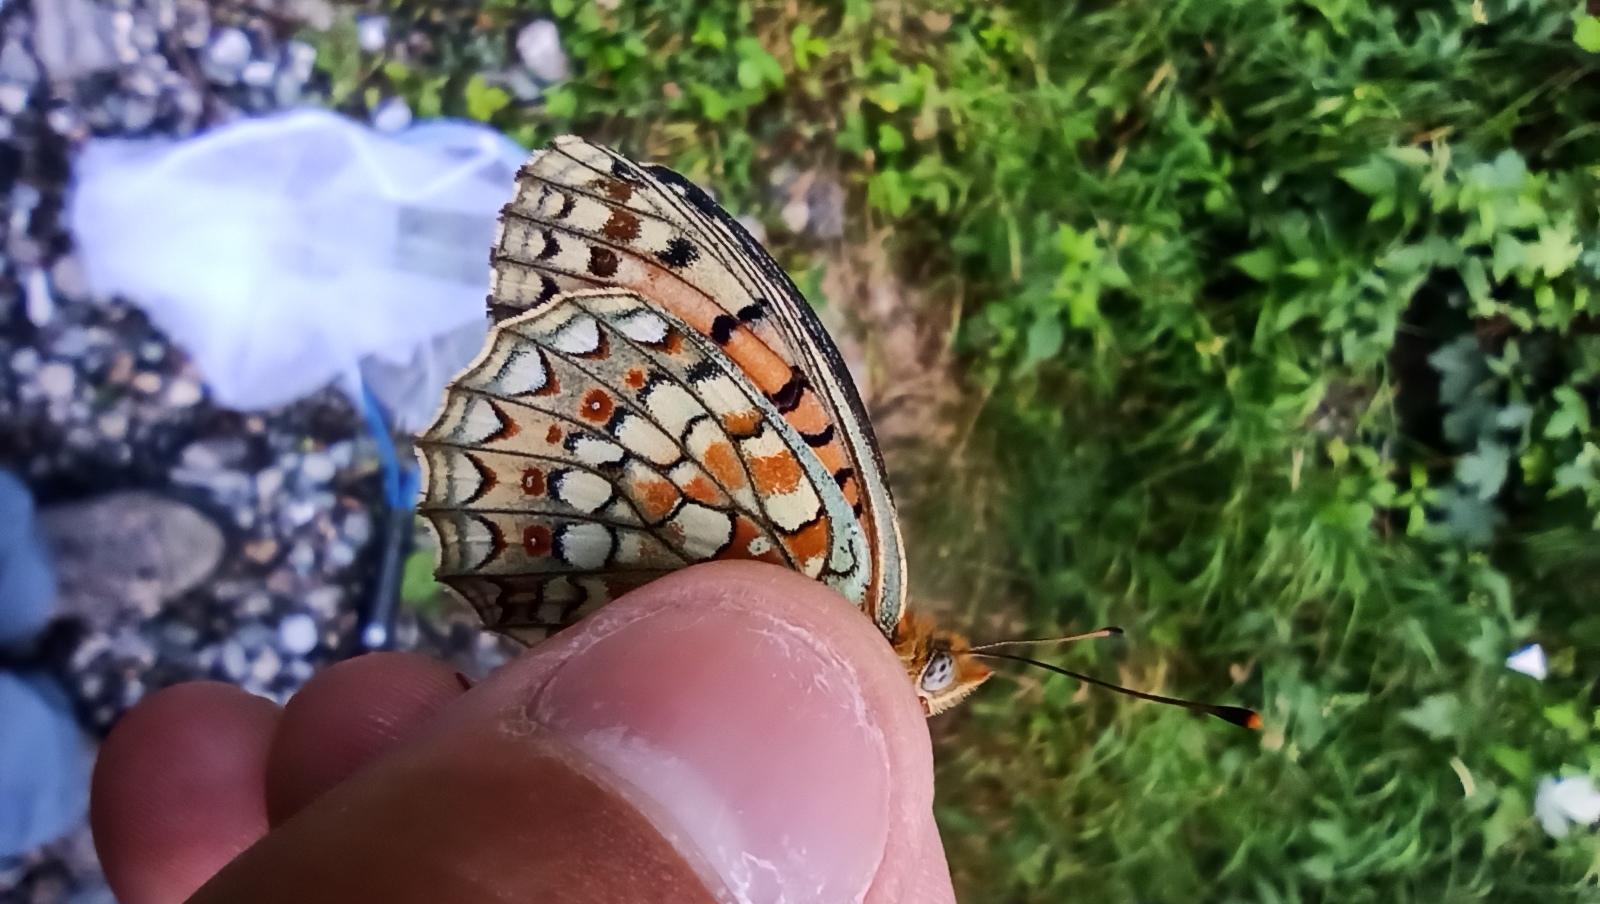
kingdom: Animalia
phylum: Arthropoda
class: Insecta
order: Lepidoptera
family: Nymphalidae
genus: Fabriciana
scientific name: Fabriciana niobe
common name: Niobe fritillary
